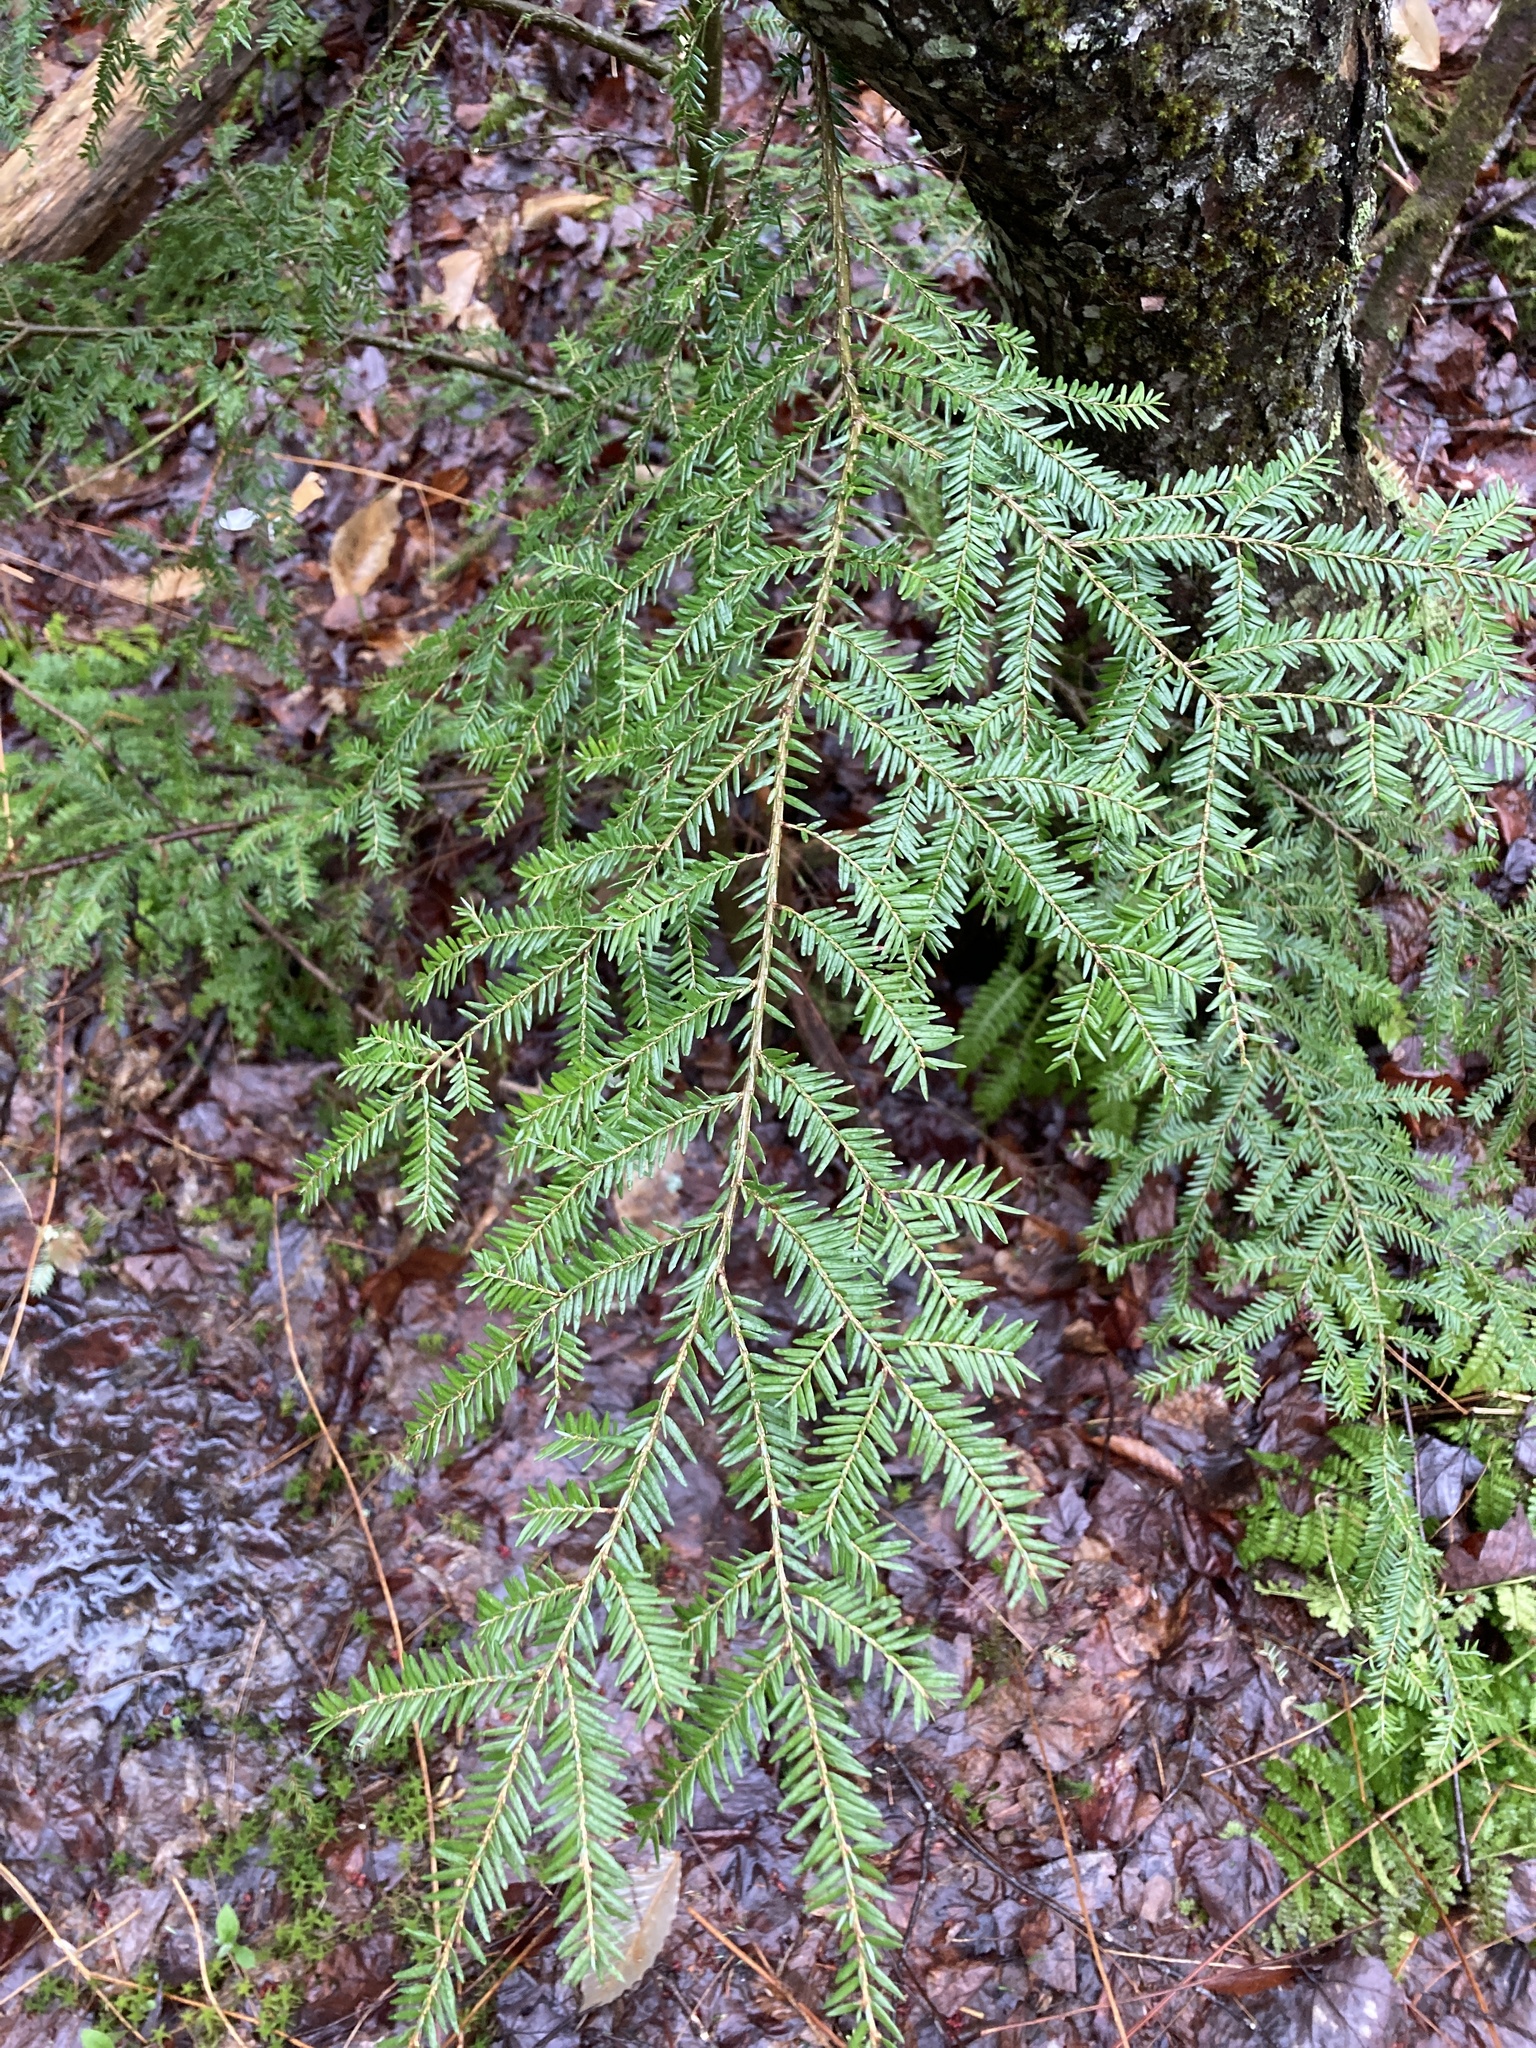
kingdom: Plantae
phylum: Tracheophyta
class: Pinopsida
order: Pinales
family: Pinaceae
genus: Tsuga
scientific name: Tsuga canadensis
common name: Eastern hemlock
